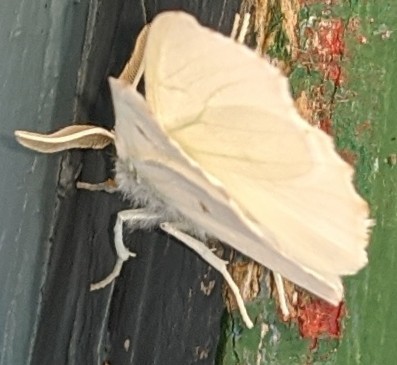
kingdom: Animalia
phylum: Arthropoda
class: Insecta
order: Lepidoptera
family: Geometridae
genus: Ennomos
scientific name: Ennomos subsignaria
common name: Elm spanworm
